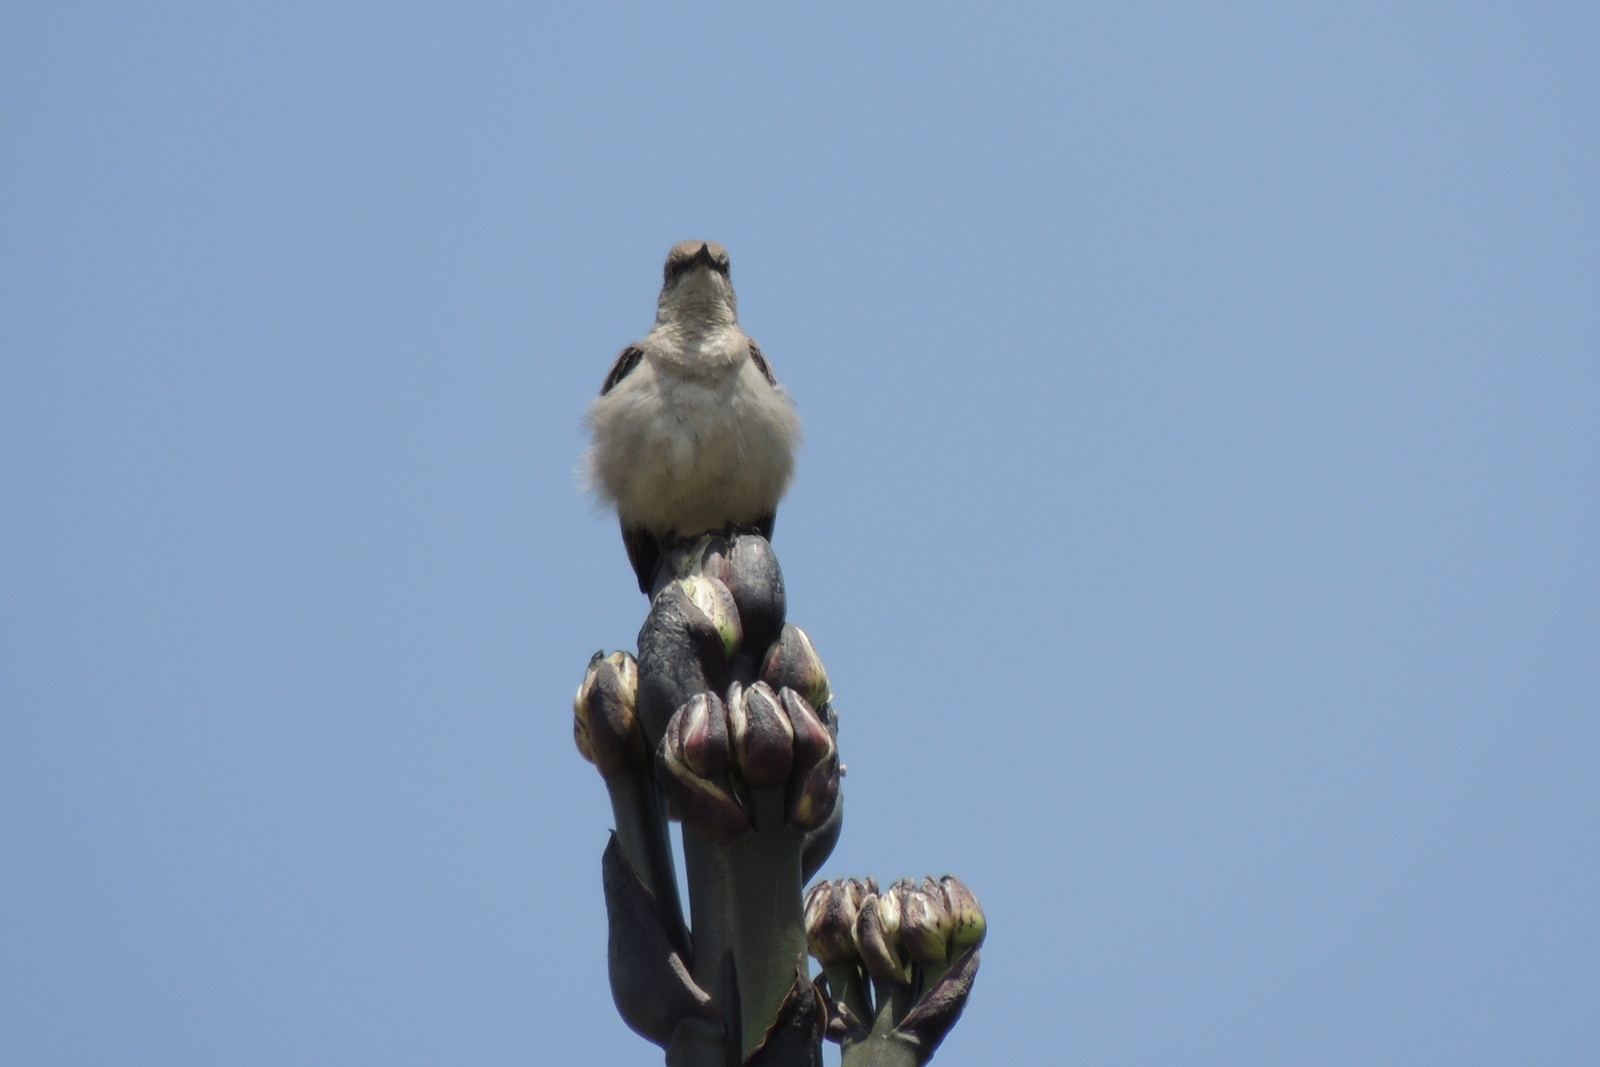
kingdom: Animalia
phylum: Chordata
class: Aves
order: Passeriformes
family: Mimidae
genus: Mimus
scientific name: Mimus polyglottos
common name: Northern mockingbird
